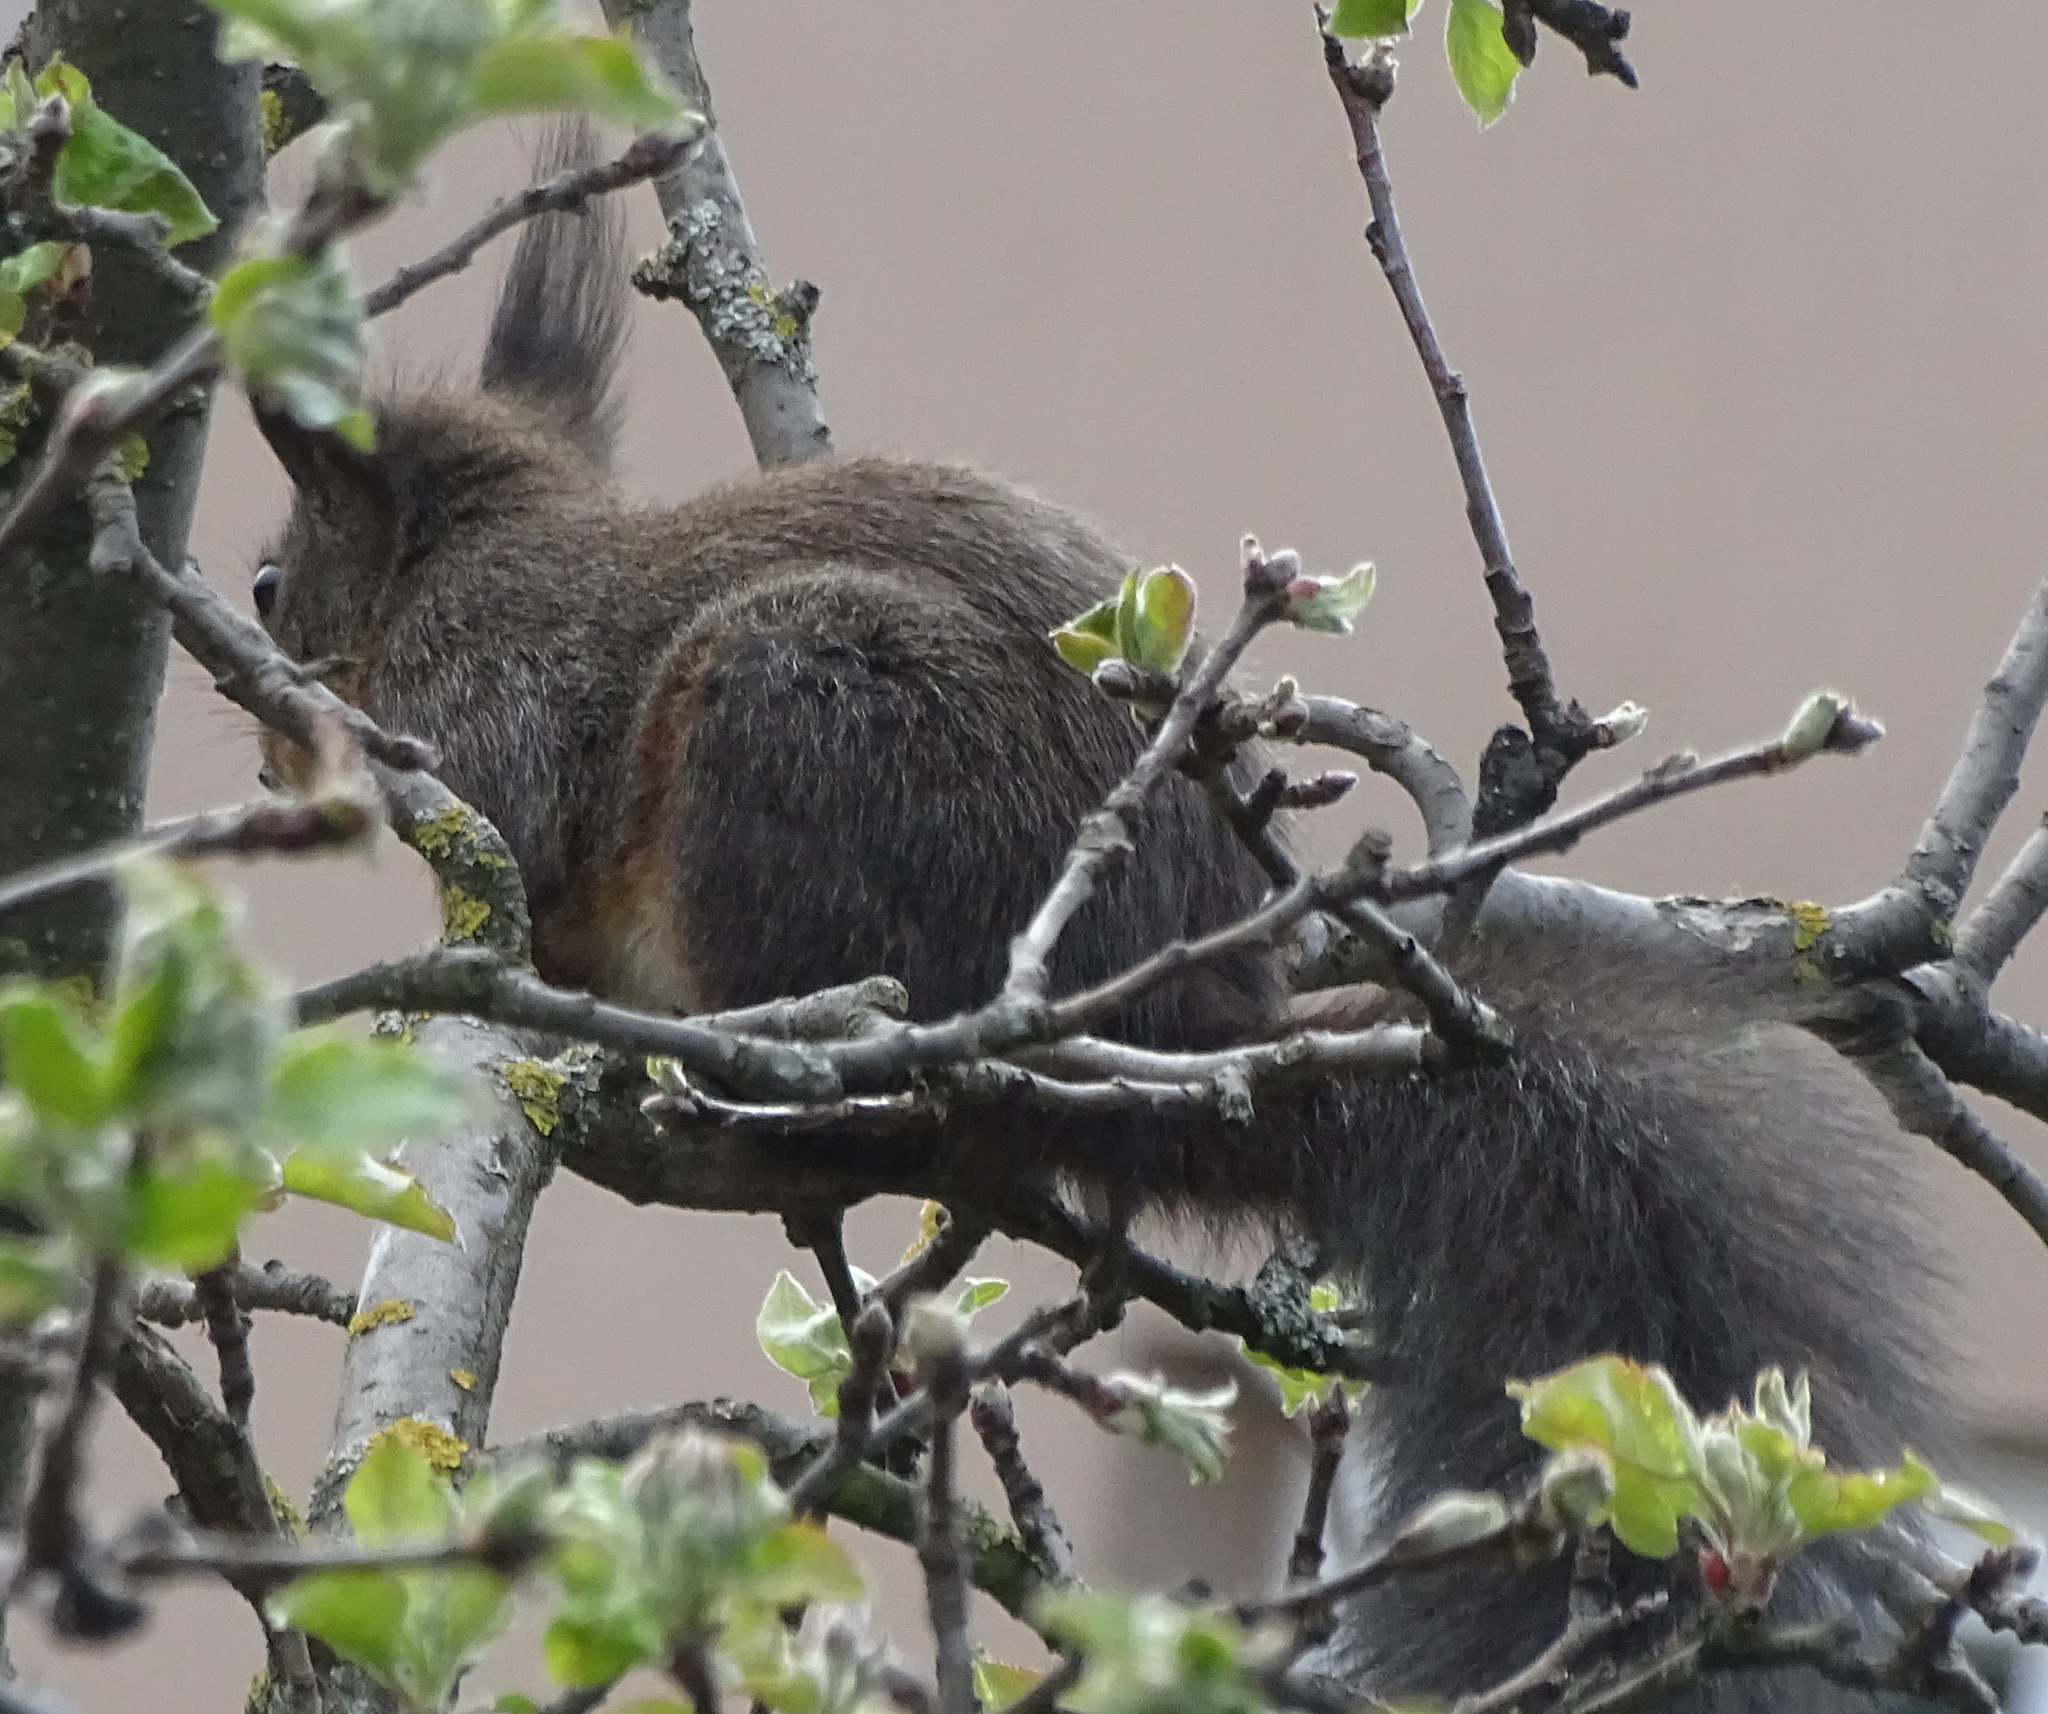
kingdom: Animalia
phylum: Chordata
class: Mammalia
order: Rodentia
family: Sciuridae
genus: Sciurus
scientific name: Sciurus vulgaris
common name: Eurasian red squirrel
